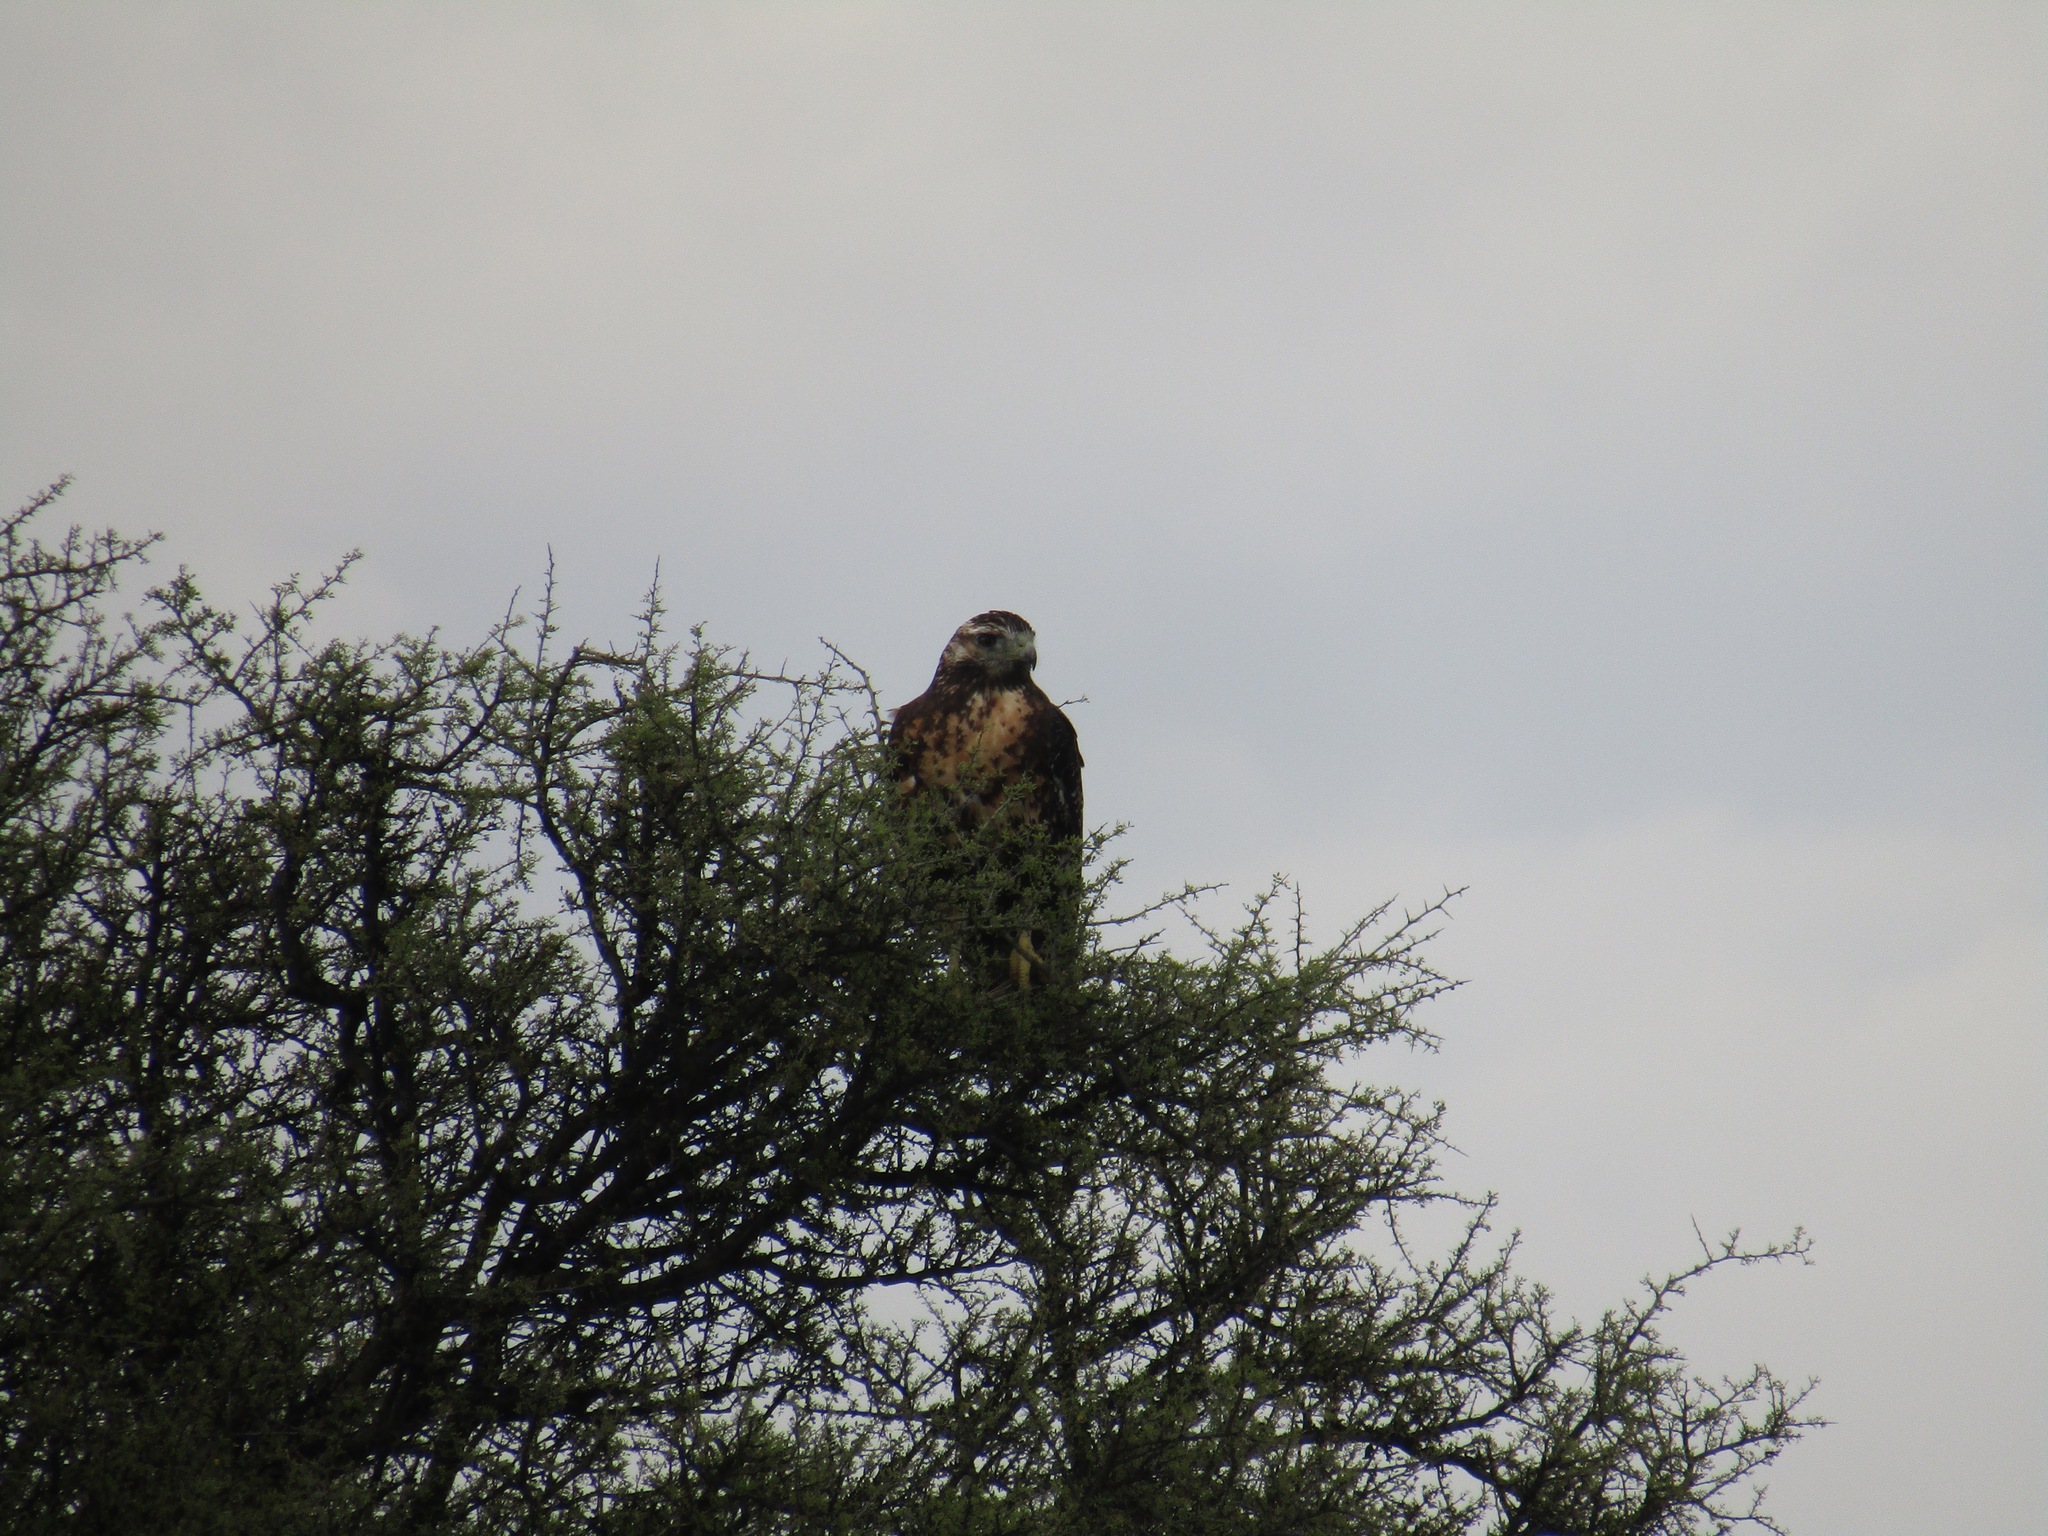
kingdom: Animalia
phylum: Chordata
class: Aves
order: Accipitriformes
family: Accipitridae
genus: Geranoaetus
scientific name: Geranoaetus melanoleucus
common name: Black-chested buzzard-eagle
